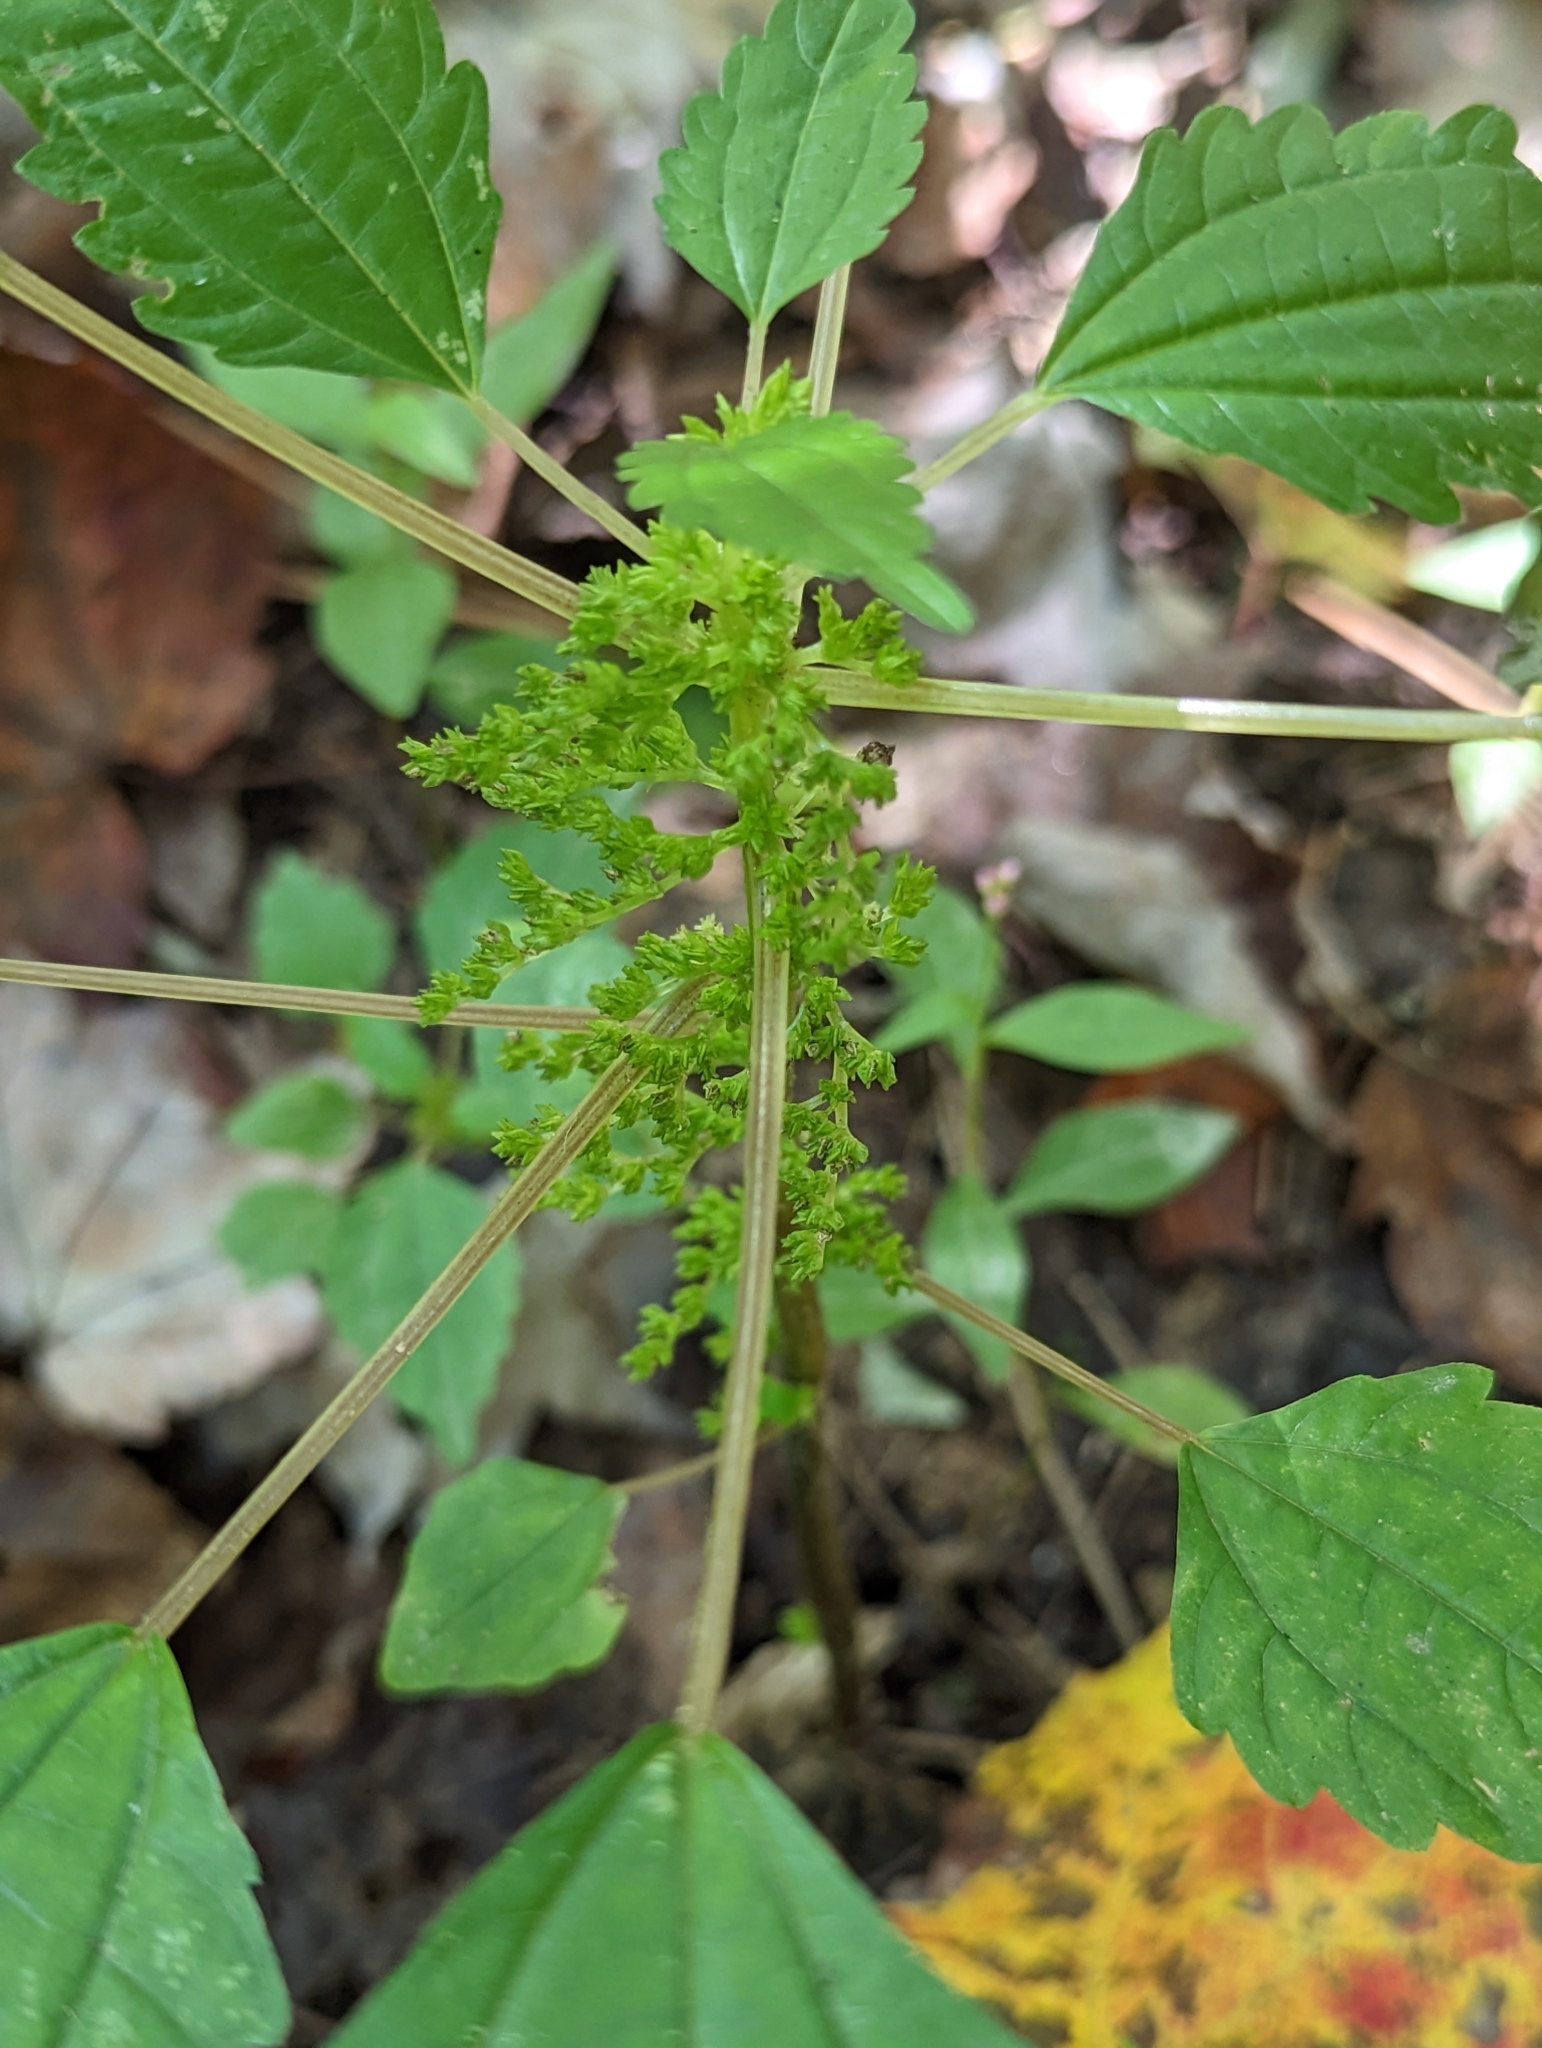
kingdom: Plantae
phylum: Tracheophyta
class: Magnoliopsida
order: Rosales
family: Urticaceae
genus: Pilea
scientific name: Pilea pumila
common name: Clearweed
